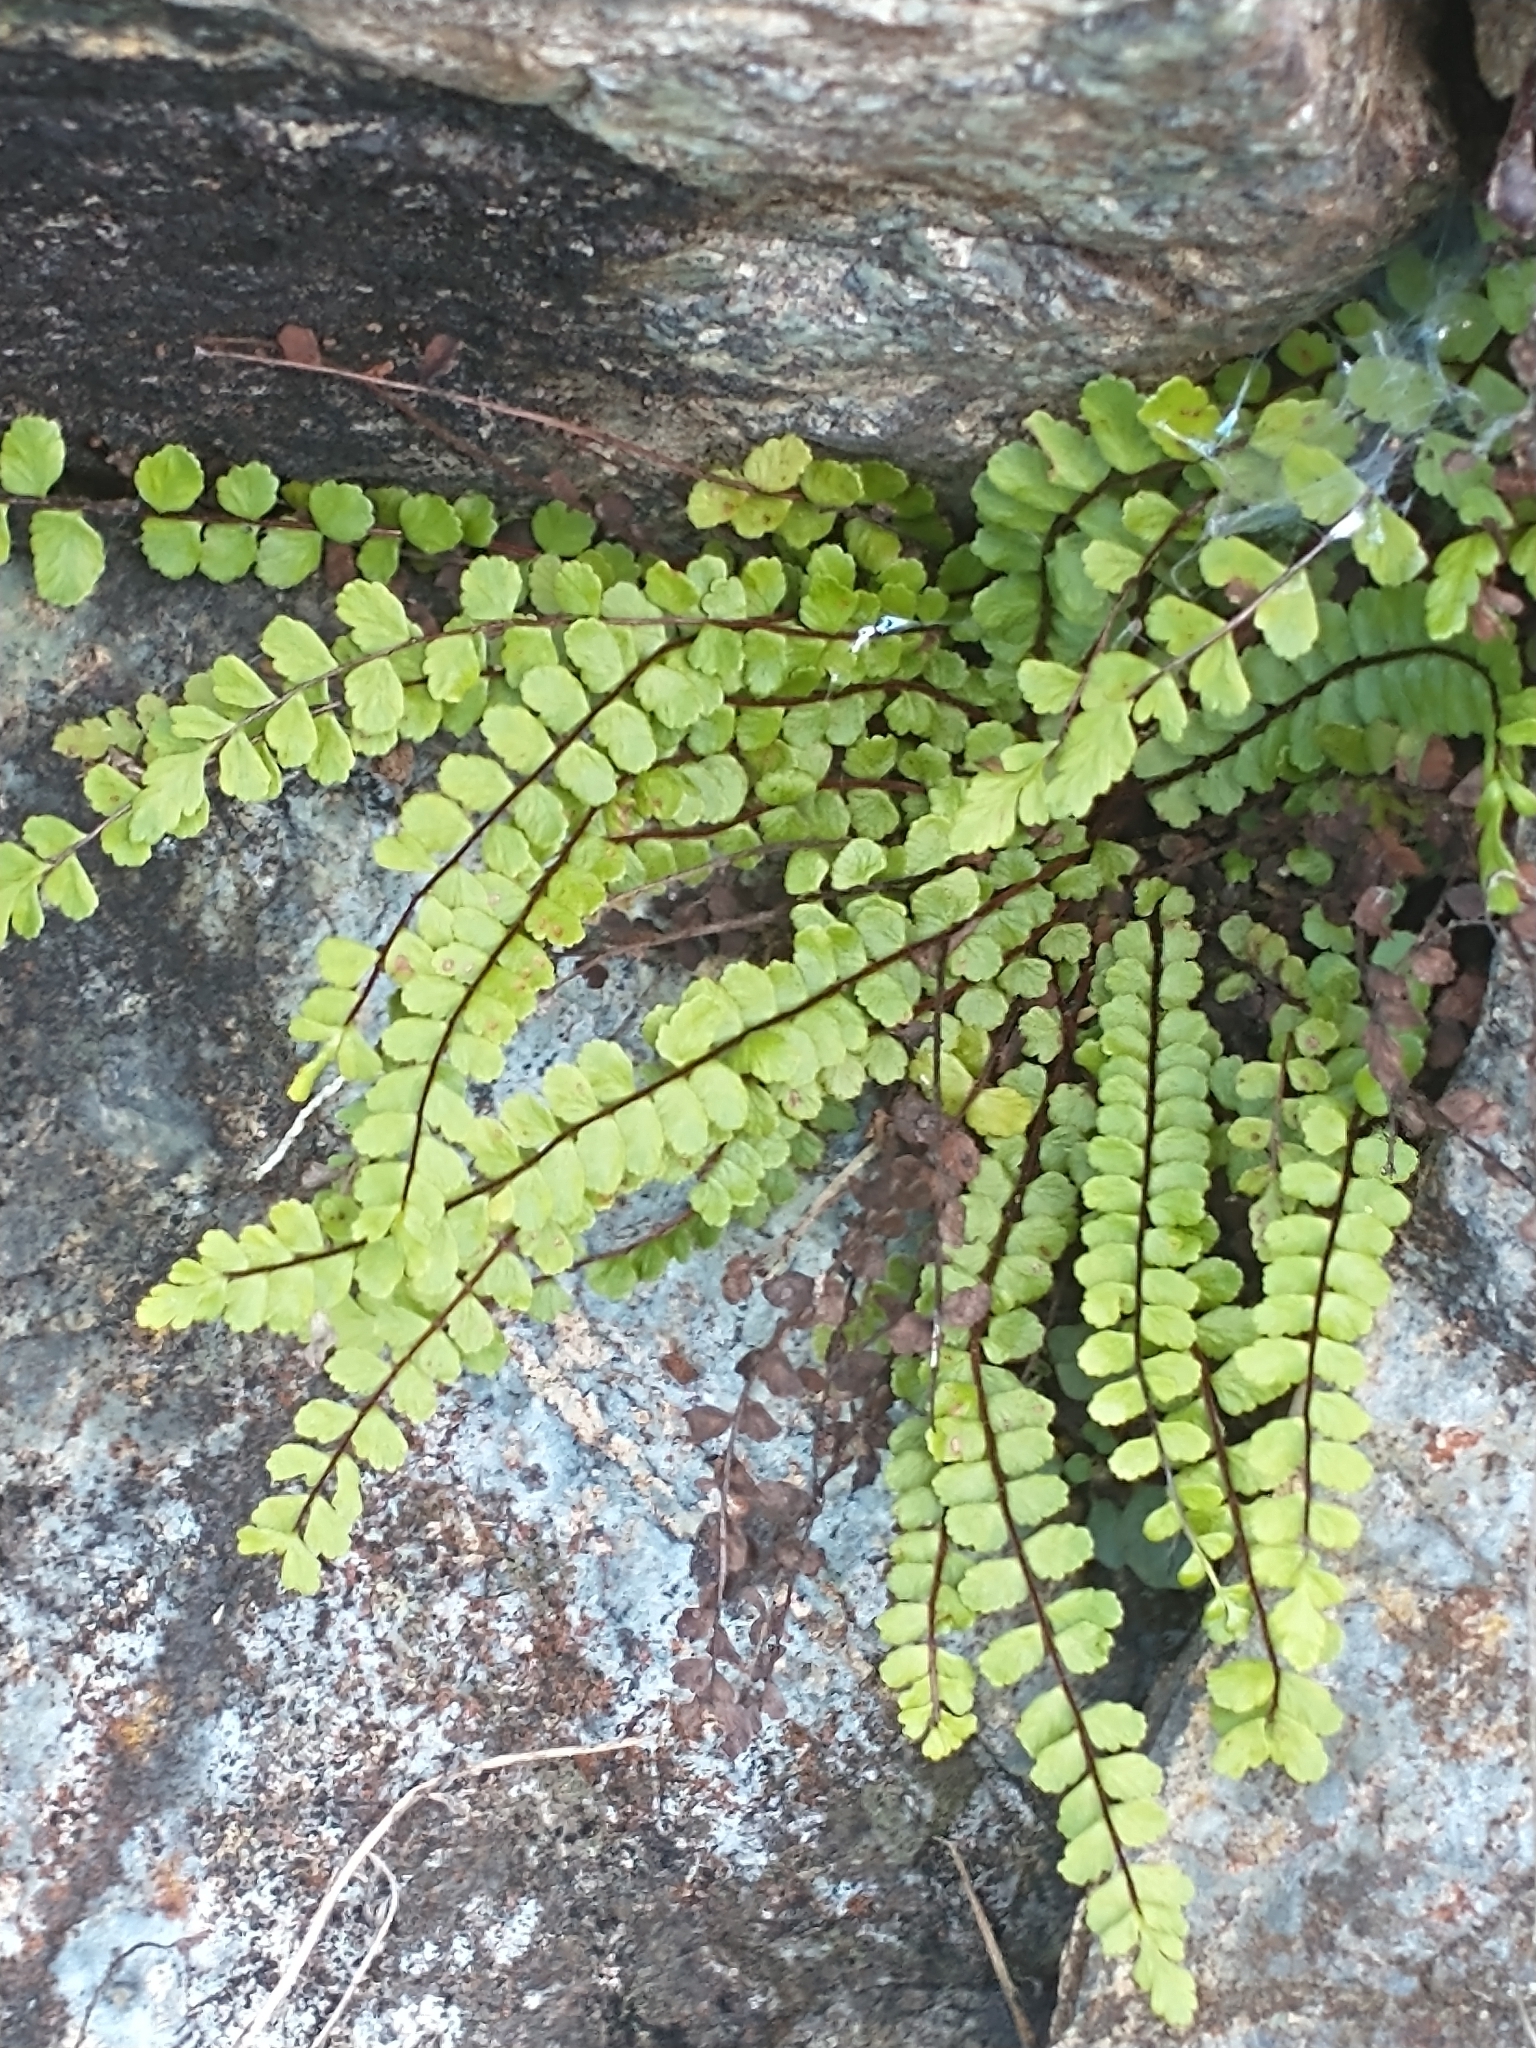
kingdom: Plantae
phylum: Tracheophyta
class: Polypodiopsida
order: Polypodiales
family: Aspleniaceae
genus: Asplenium
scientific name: Asplenium trichomanes
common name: Maidenhair spleenwort
